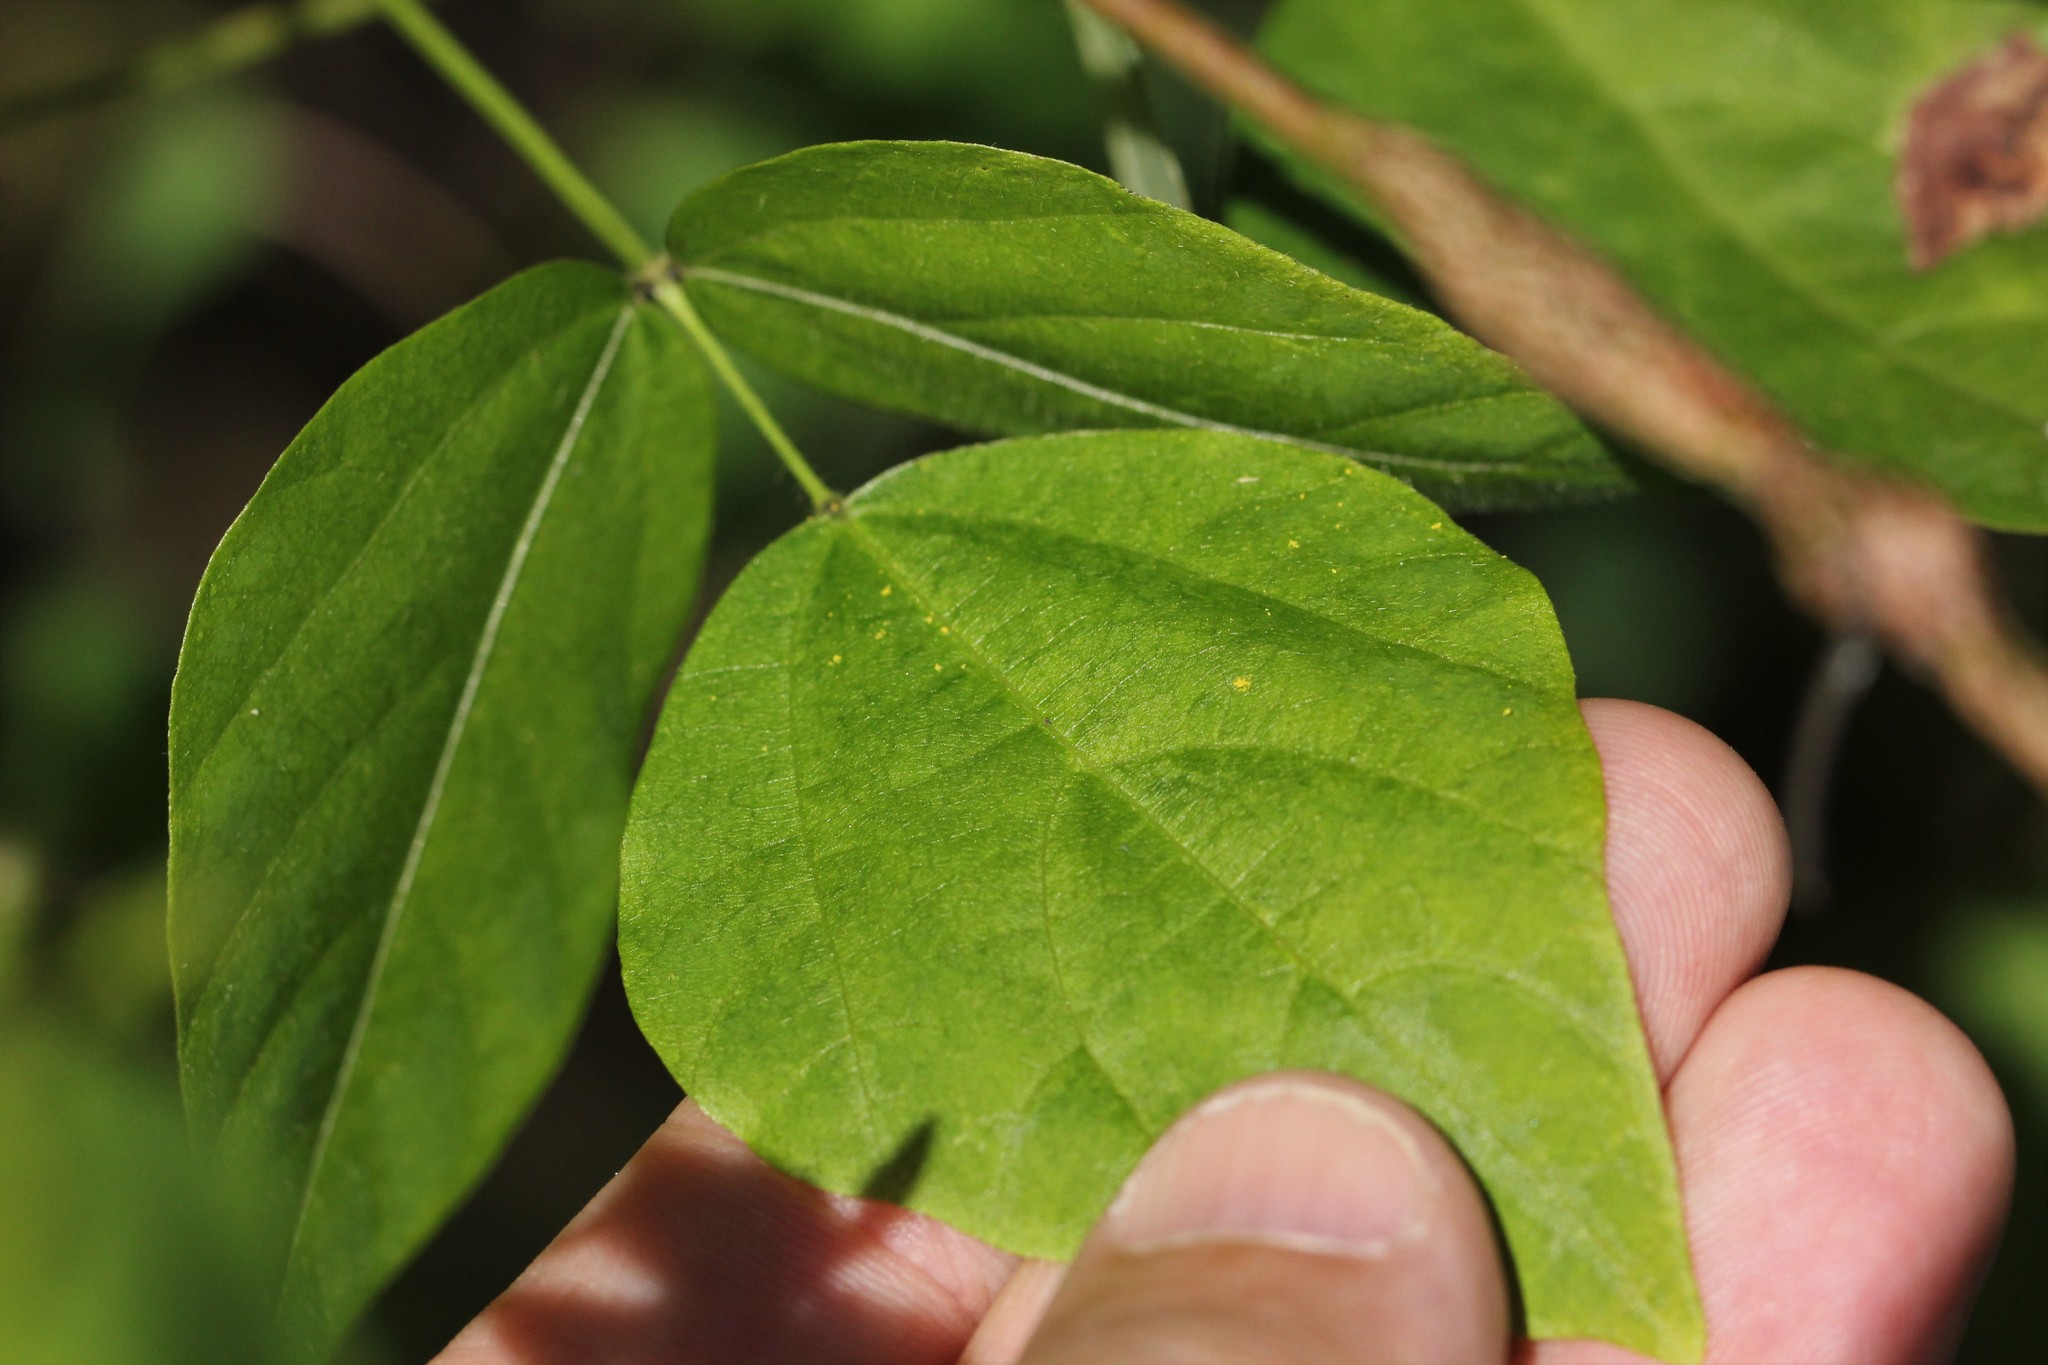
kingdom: Plantae
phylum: Tracheophyta
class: Magnoliopsida
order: Fabales
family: Fabaceae
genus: Amphicarpaea
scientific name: Amphicarpaea bracteata
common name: American hog peanut
